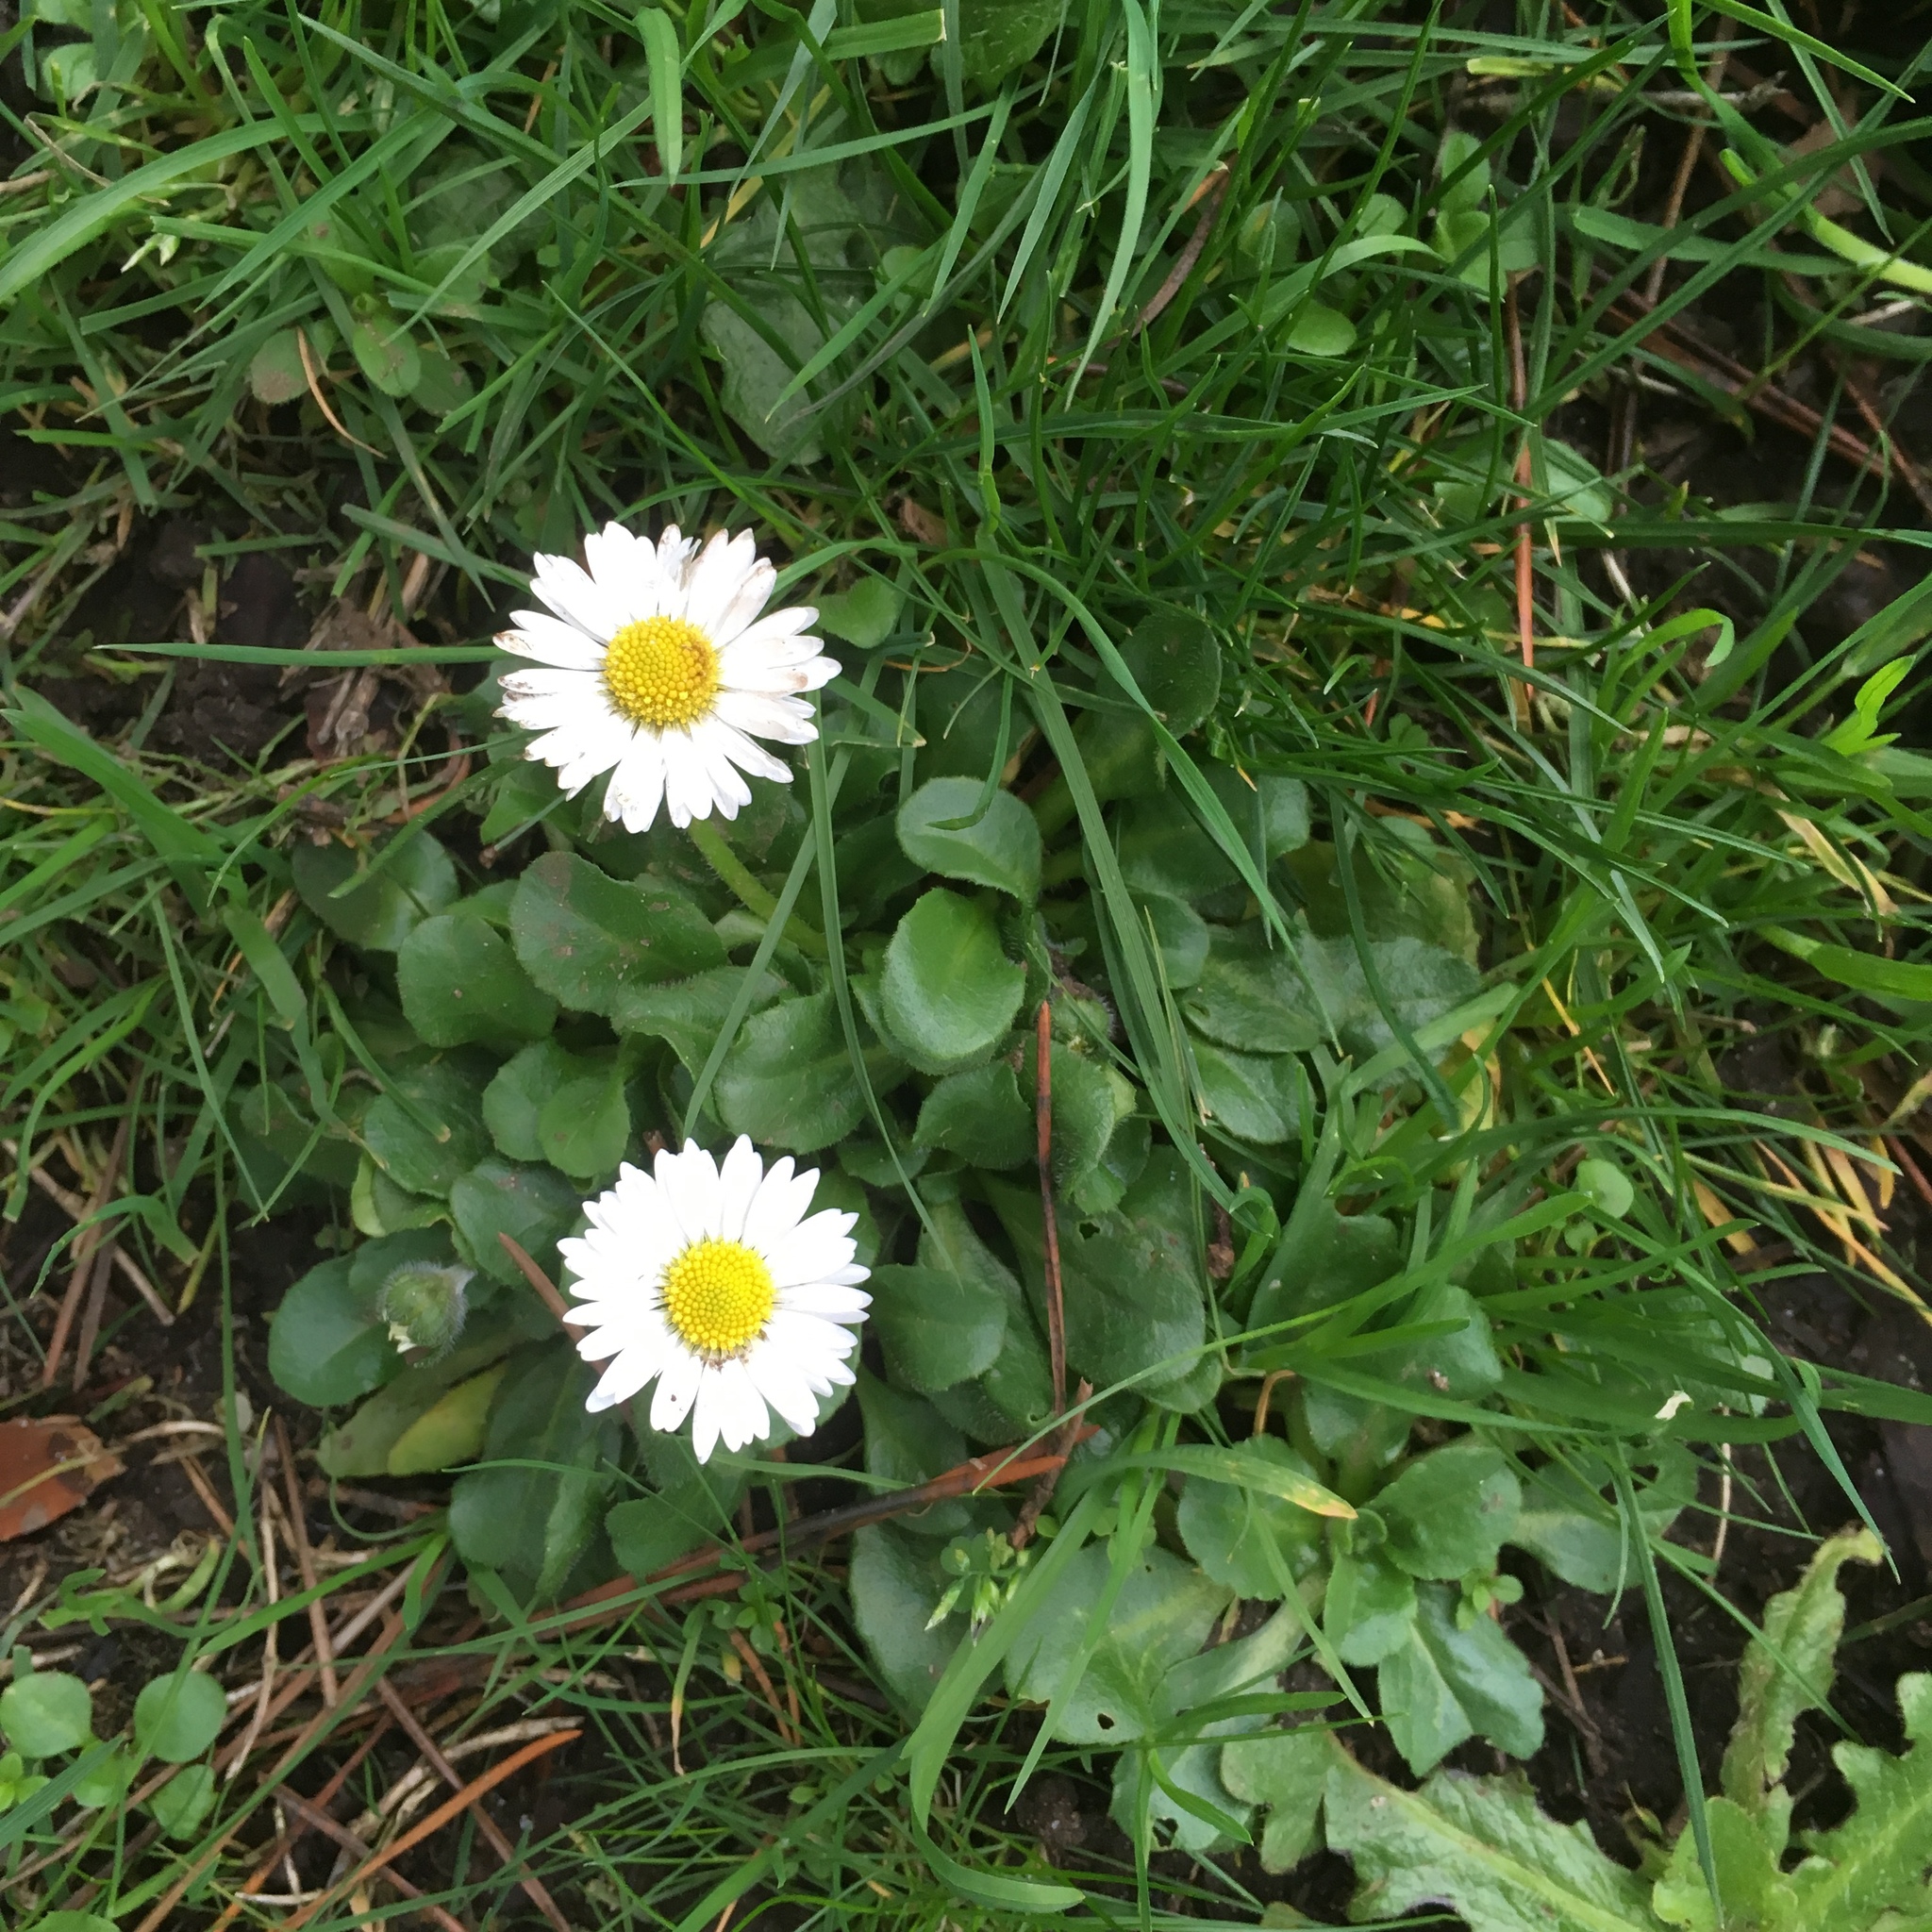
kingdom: Plantae
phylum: Tracheophyta
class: Magnoliopsida
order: Asterales
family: Asteraceae
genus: Bellis
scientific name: Bellis perennis
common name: Lawndaisy
